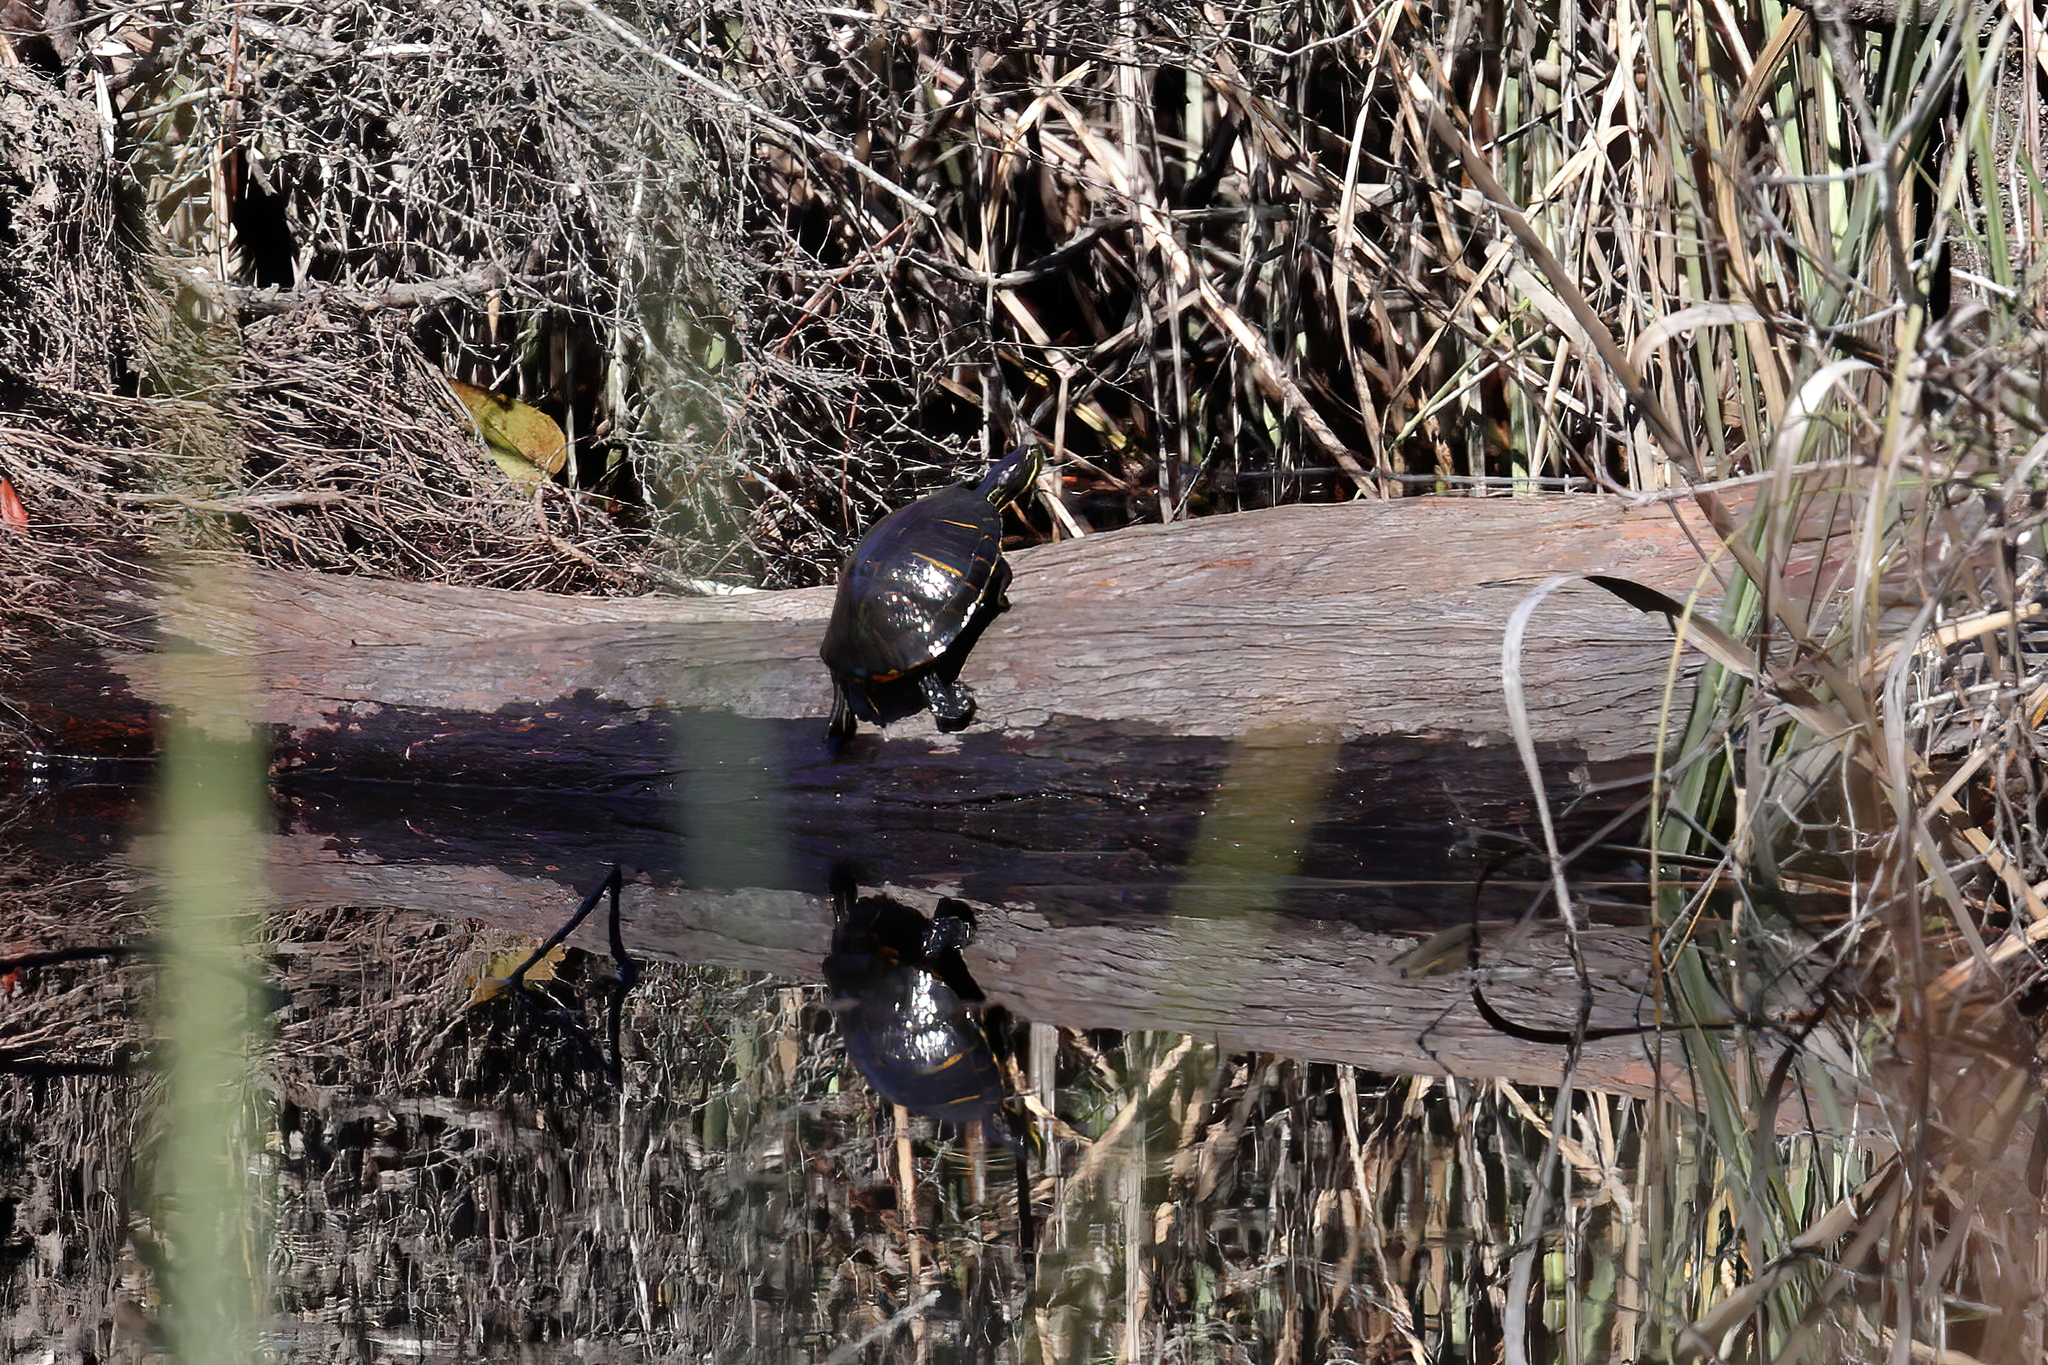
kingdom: Animalia
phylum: Chordata
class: Testudines
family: Emydidae
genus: Trachemys
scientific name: Trachemys scripta
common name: Slider
